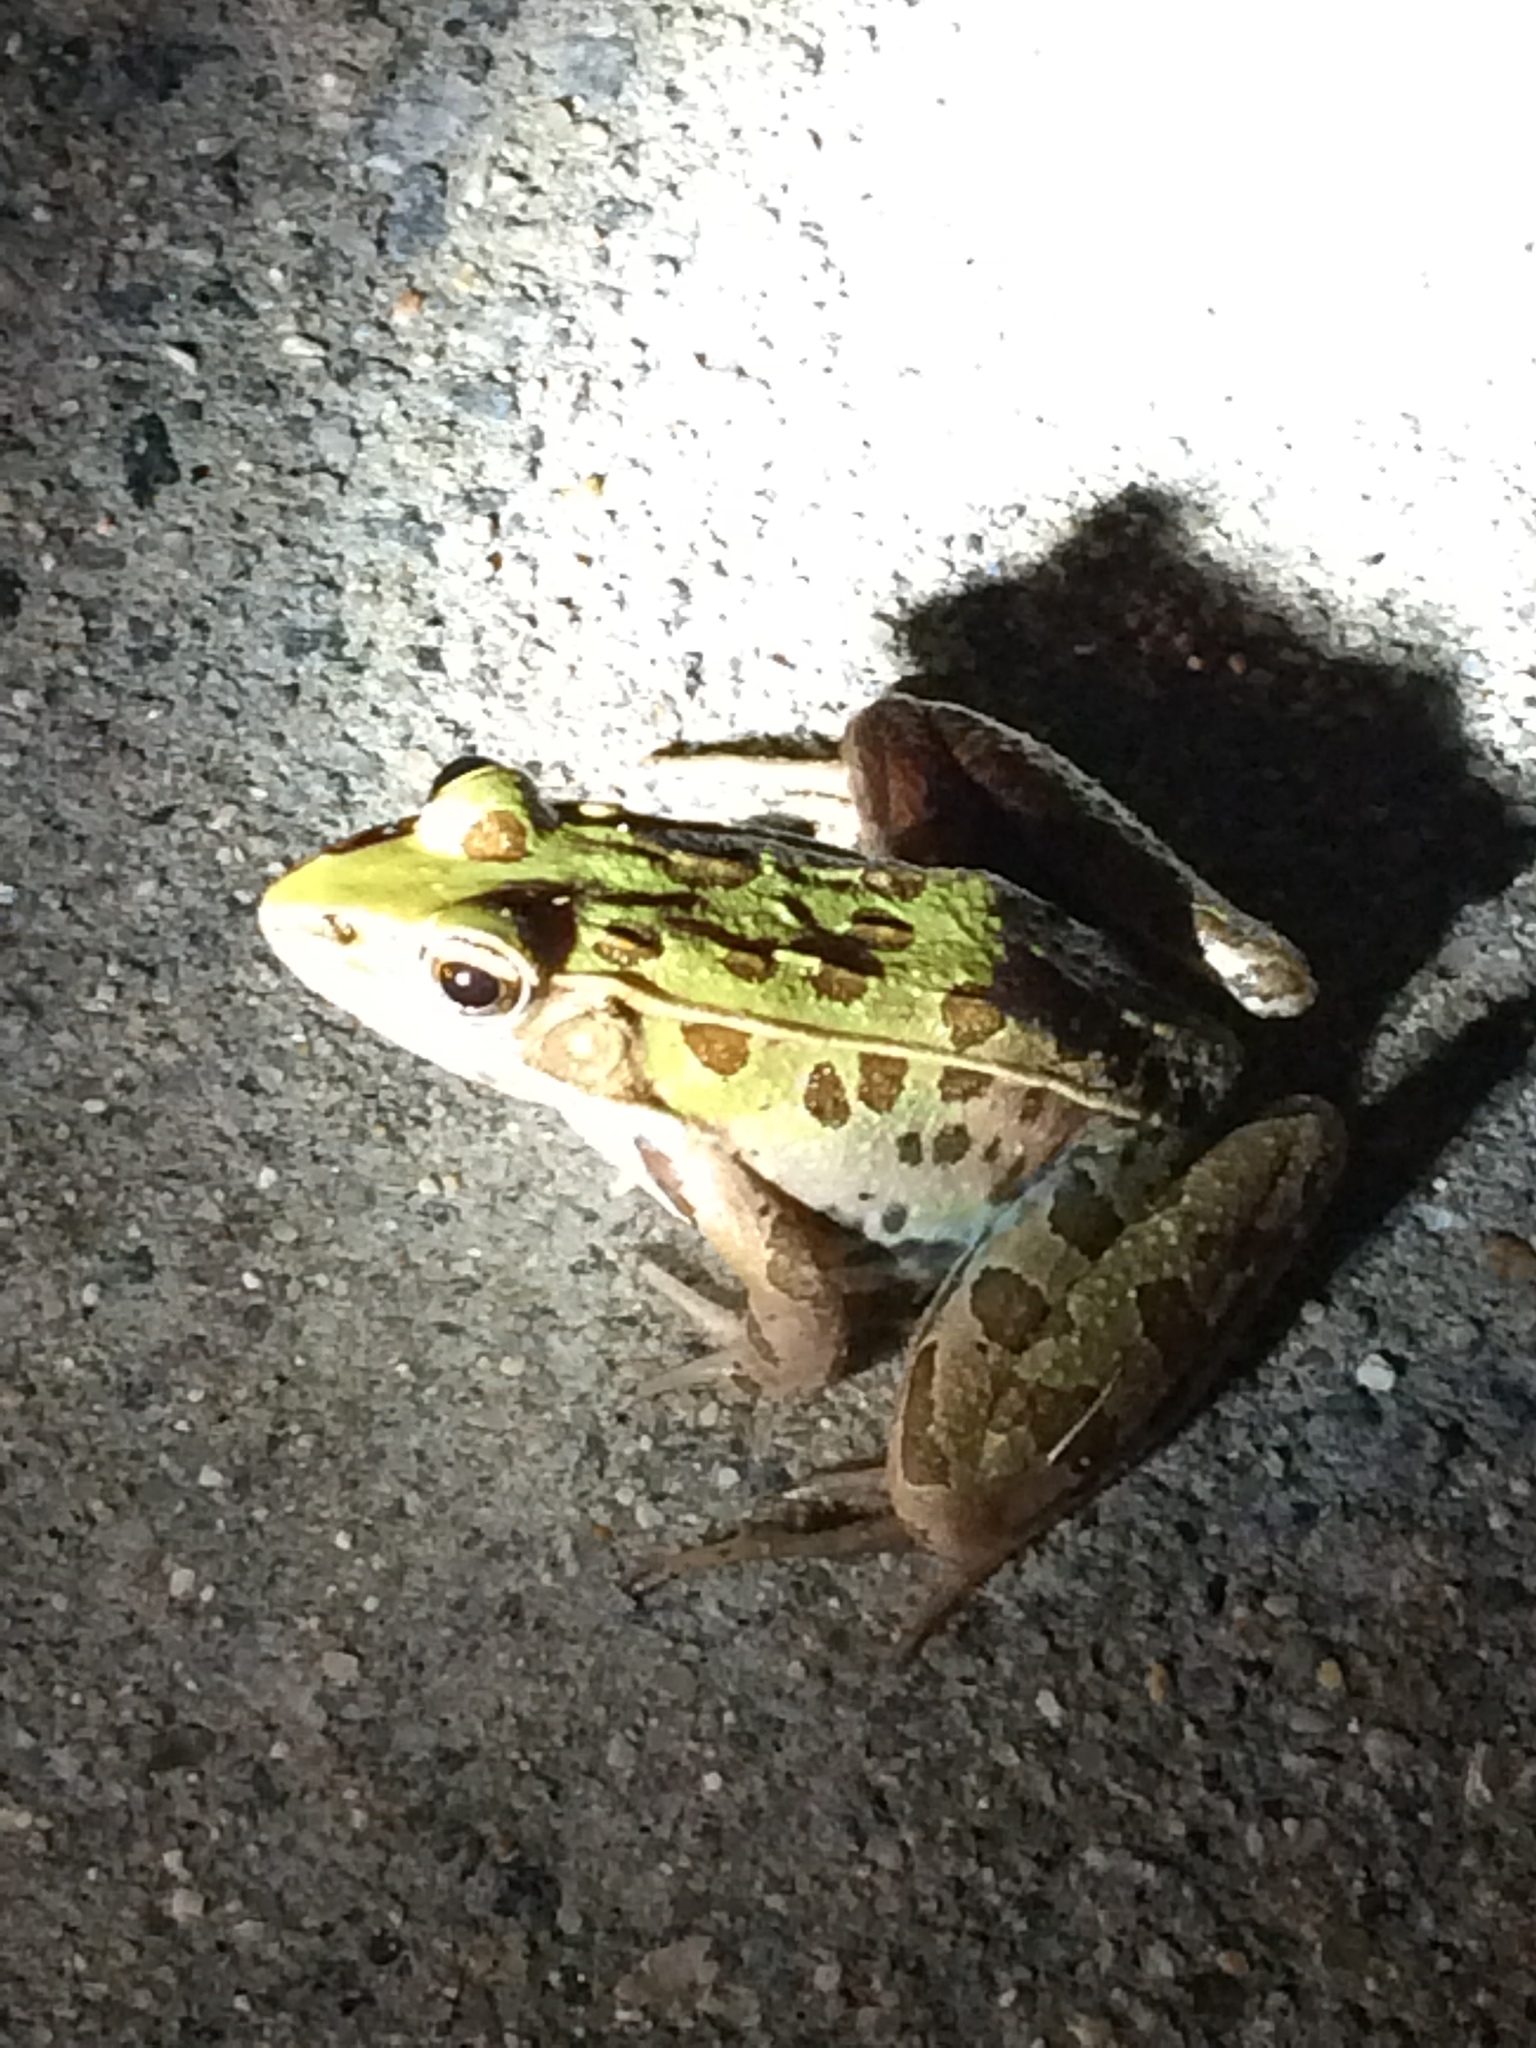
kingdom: Animalia
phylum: Chordata
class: Amphibia
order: Anura
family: Ranidae
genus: Lithobates
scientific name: Lithobates sphenocephalus
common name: Southern leopard frog
